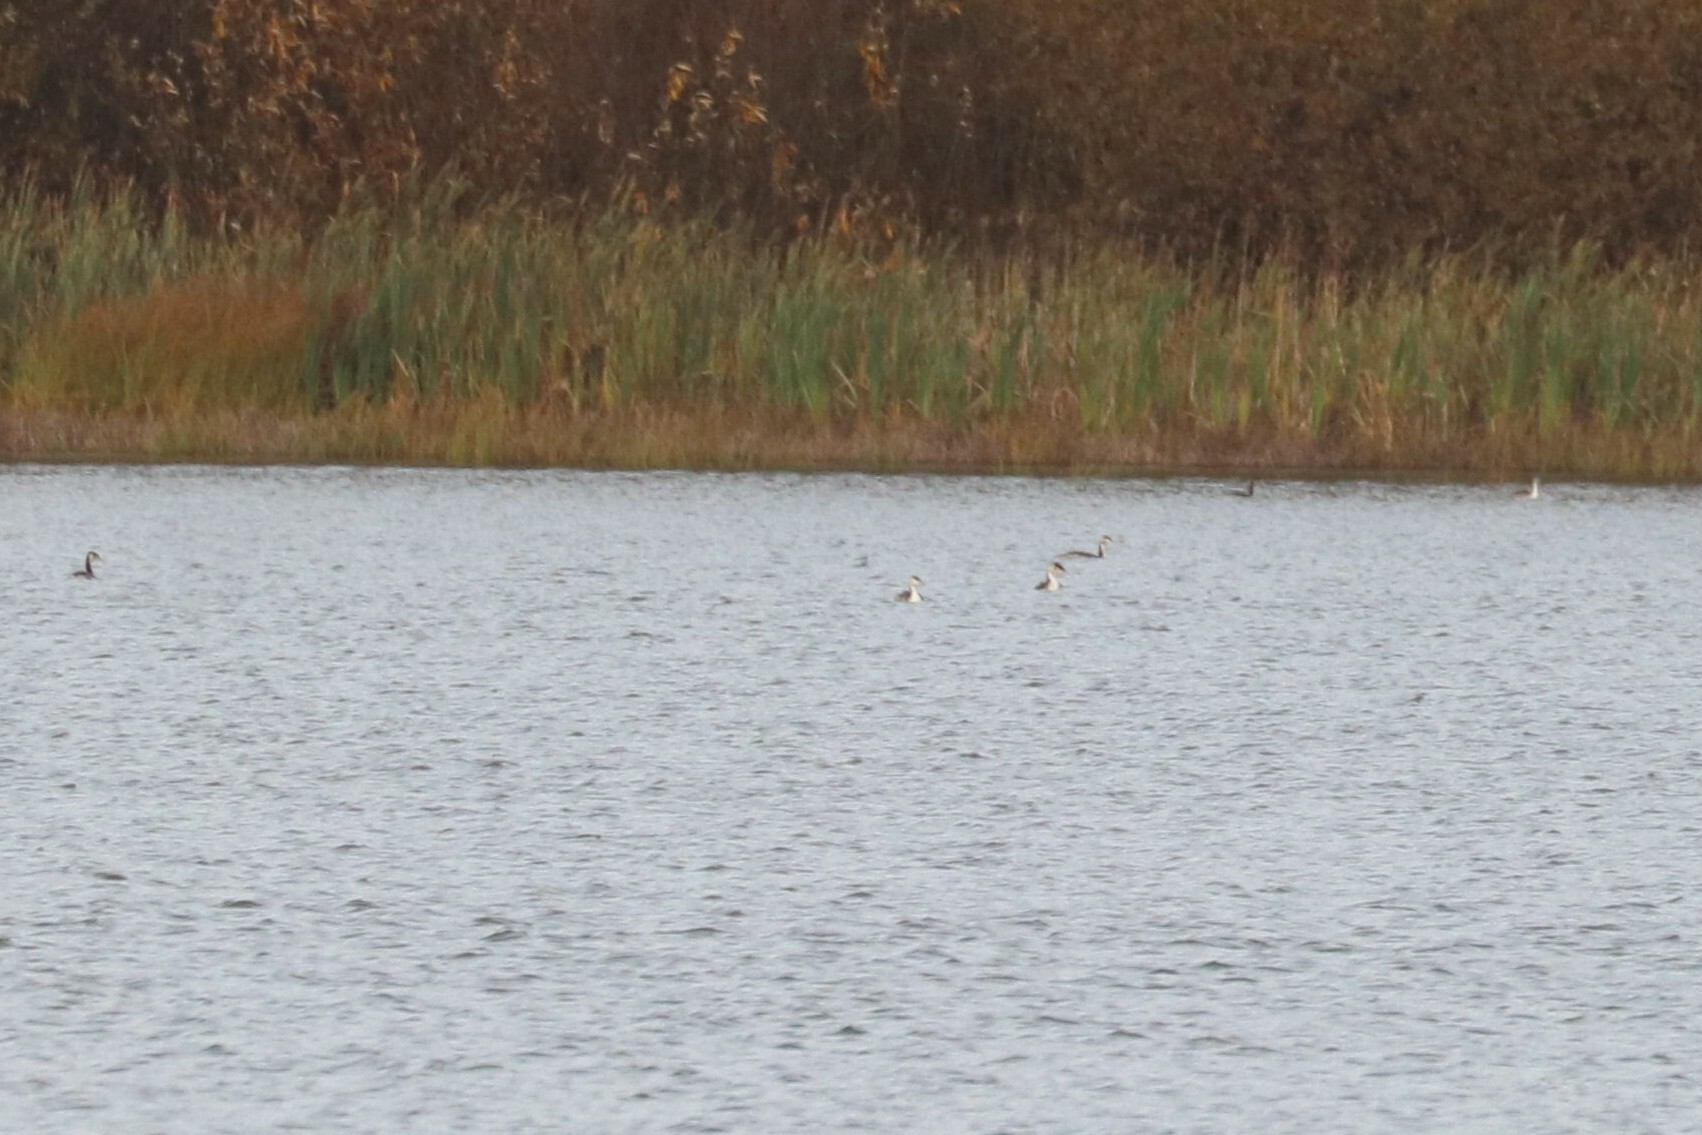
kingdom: Animalia
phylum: Chordata
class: Aves
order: Podicipediformes
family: Podicipedidae
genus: Podiceps
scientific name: Podiceps cristatus
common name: Great crested grebe
